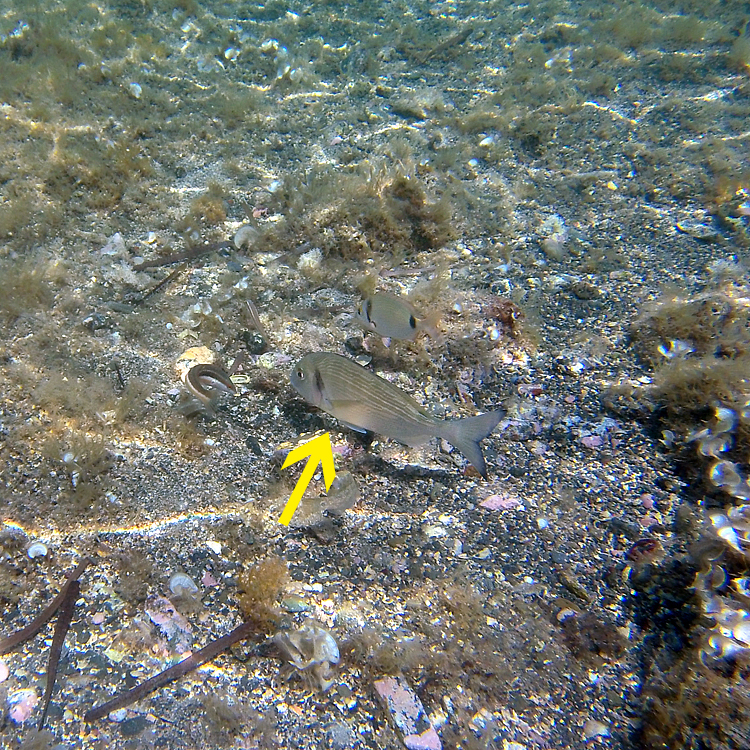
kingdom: Animalia
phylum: Chordata
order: Perciformes
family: Sparidae
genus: Sparus
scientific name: Sparus aurata
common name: Gilthead
